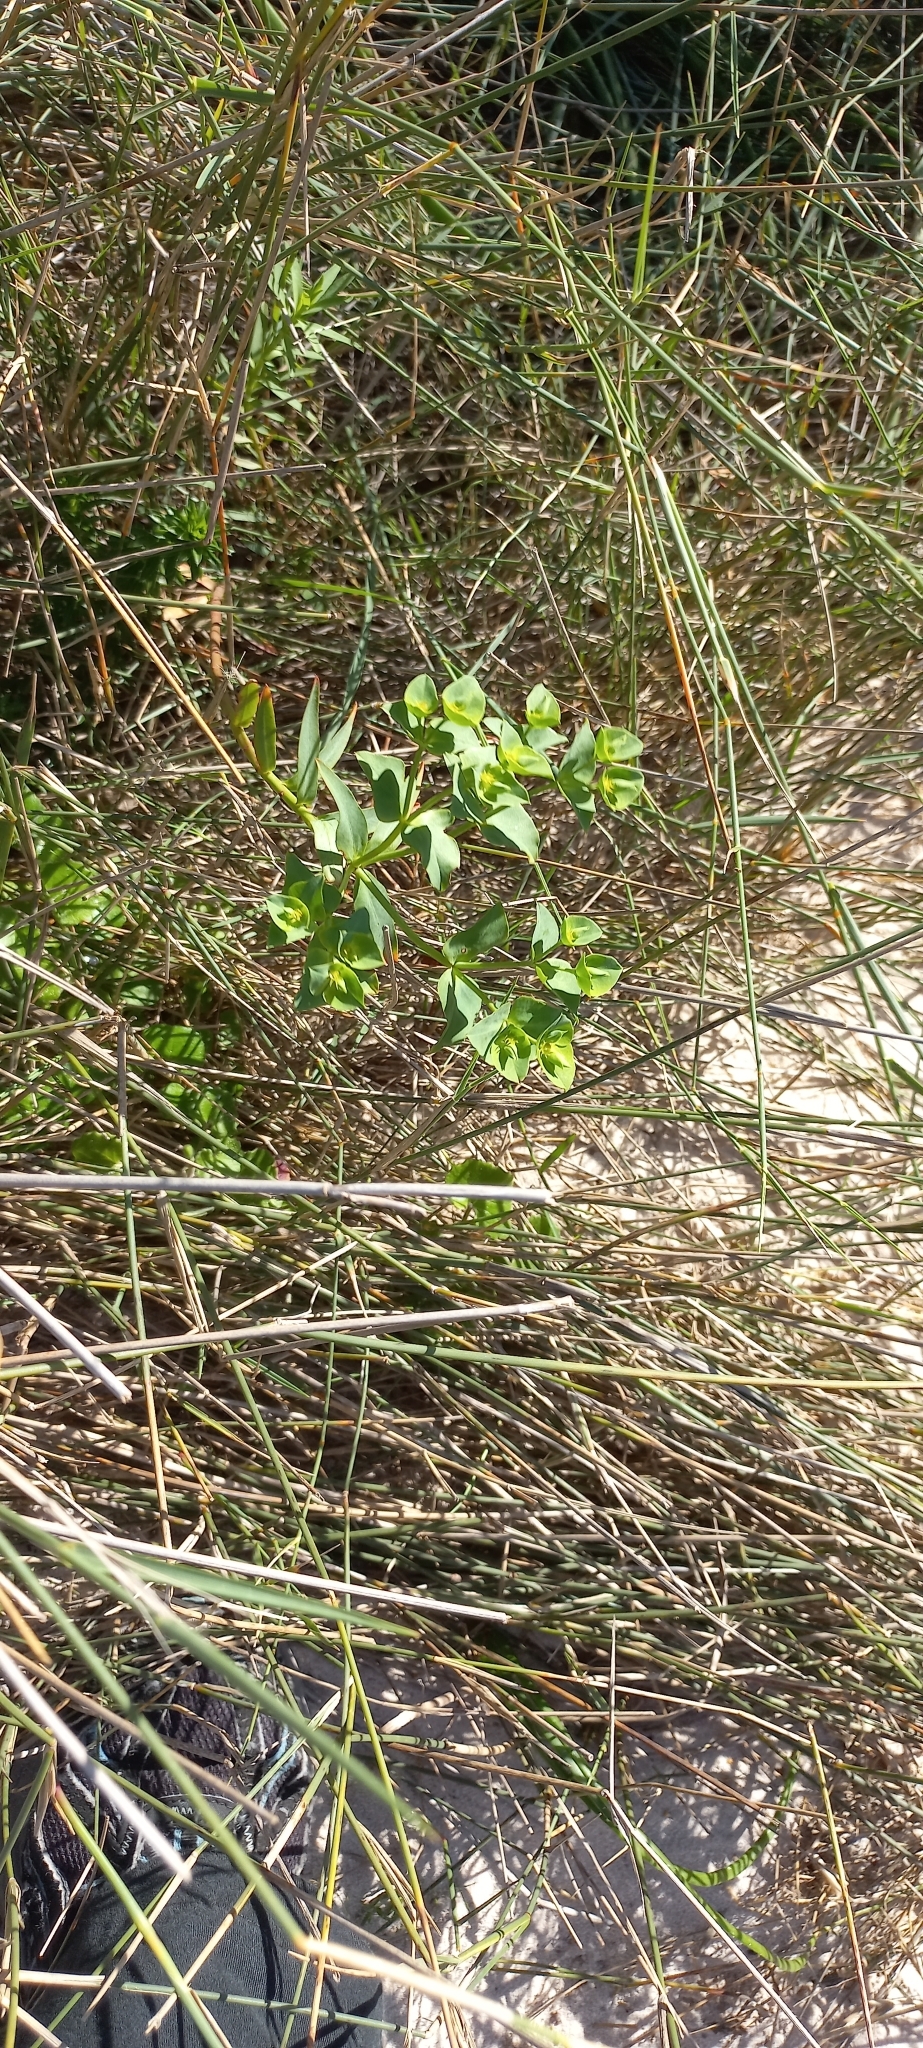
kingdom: Plantae
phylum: Tracheophyta
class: Magnoliopsida
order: Malpighiales
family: Euphorbiaceae
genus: Euphorbia
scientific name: Euphorbia terracina
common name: Geraldton carnation weed
